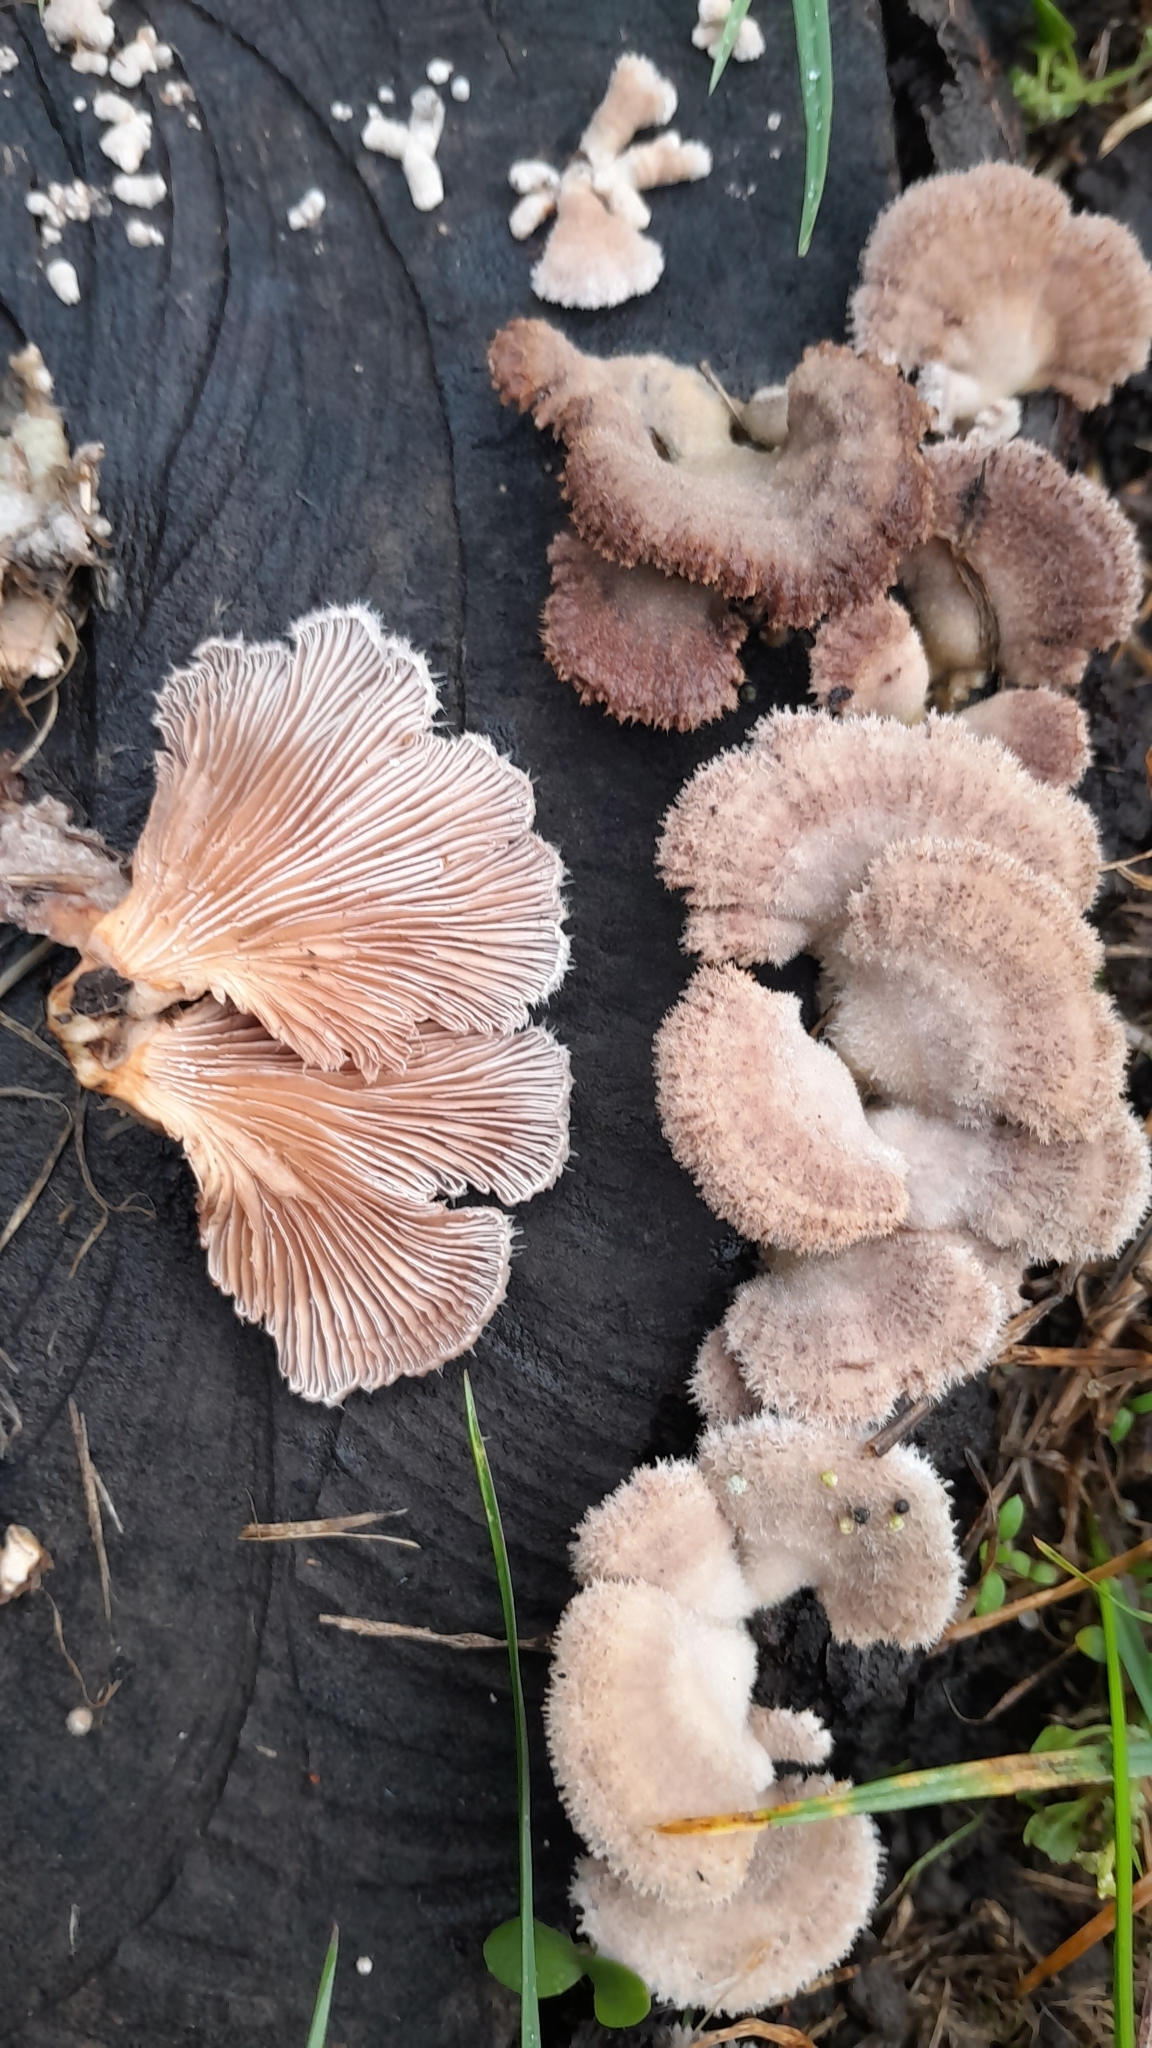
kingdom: Fungi
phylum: Basidiomycota
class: Agaricomycetes
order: Agaricales
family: Schizophyllaceae
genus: Schizophyllum
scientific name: Schizophyllum commune
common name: Common porecrust
